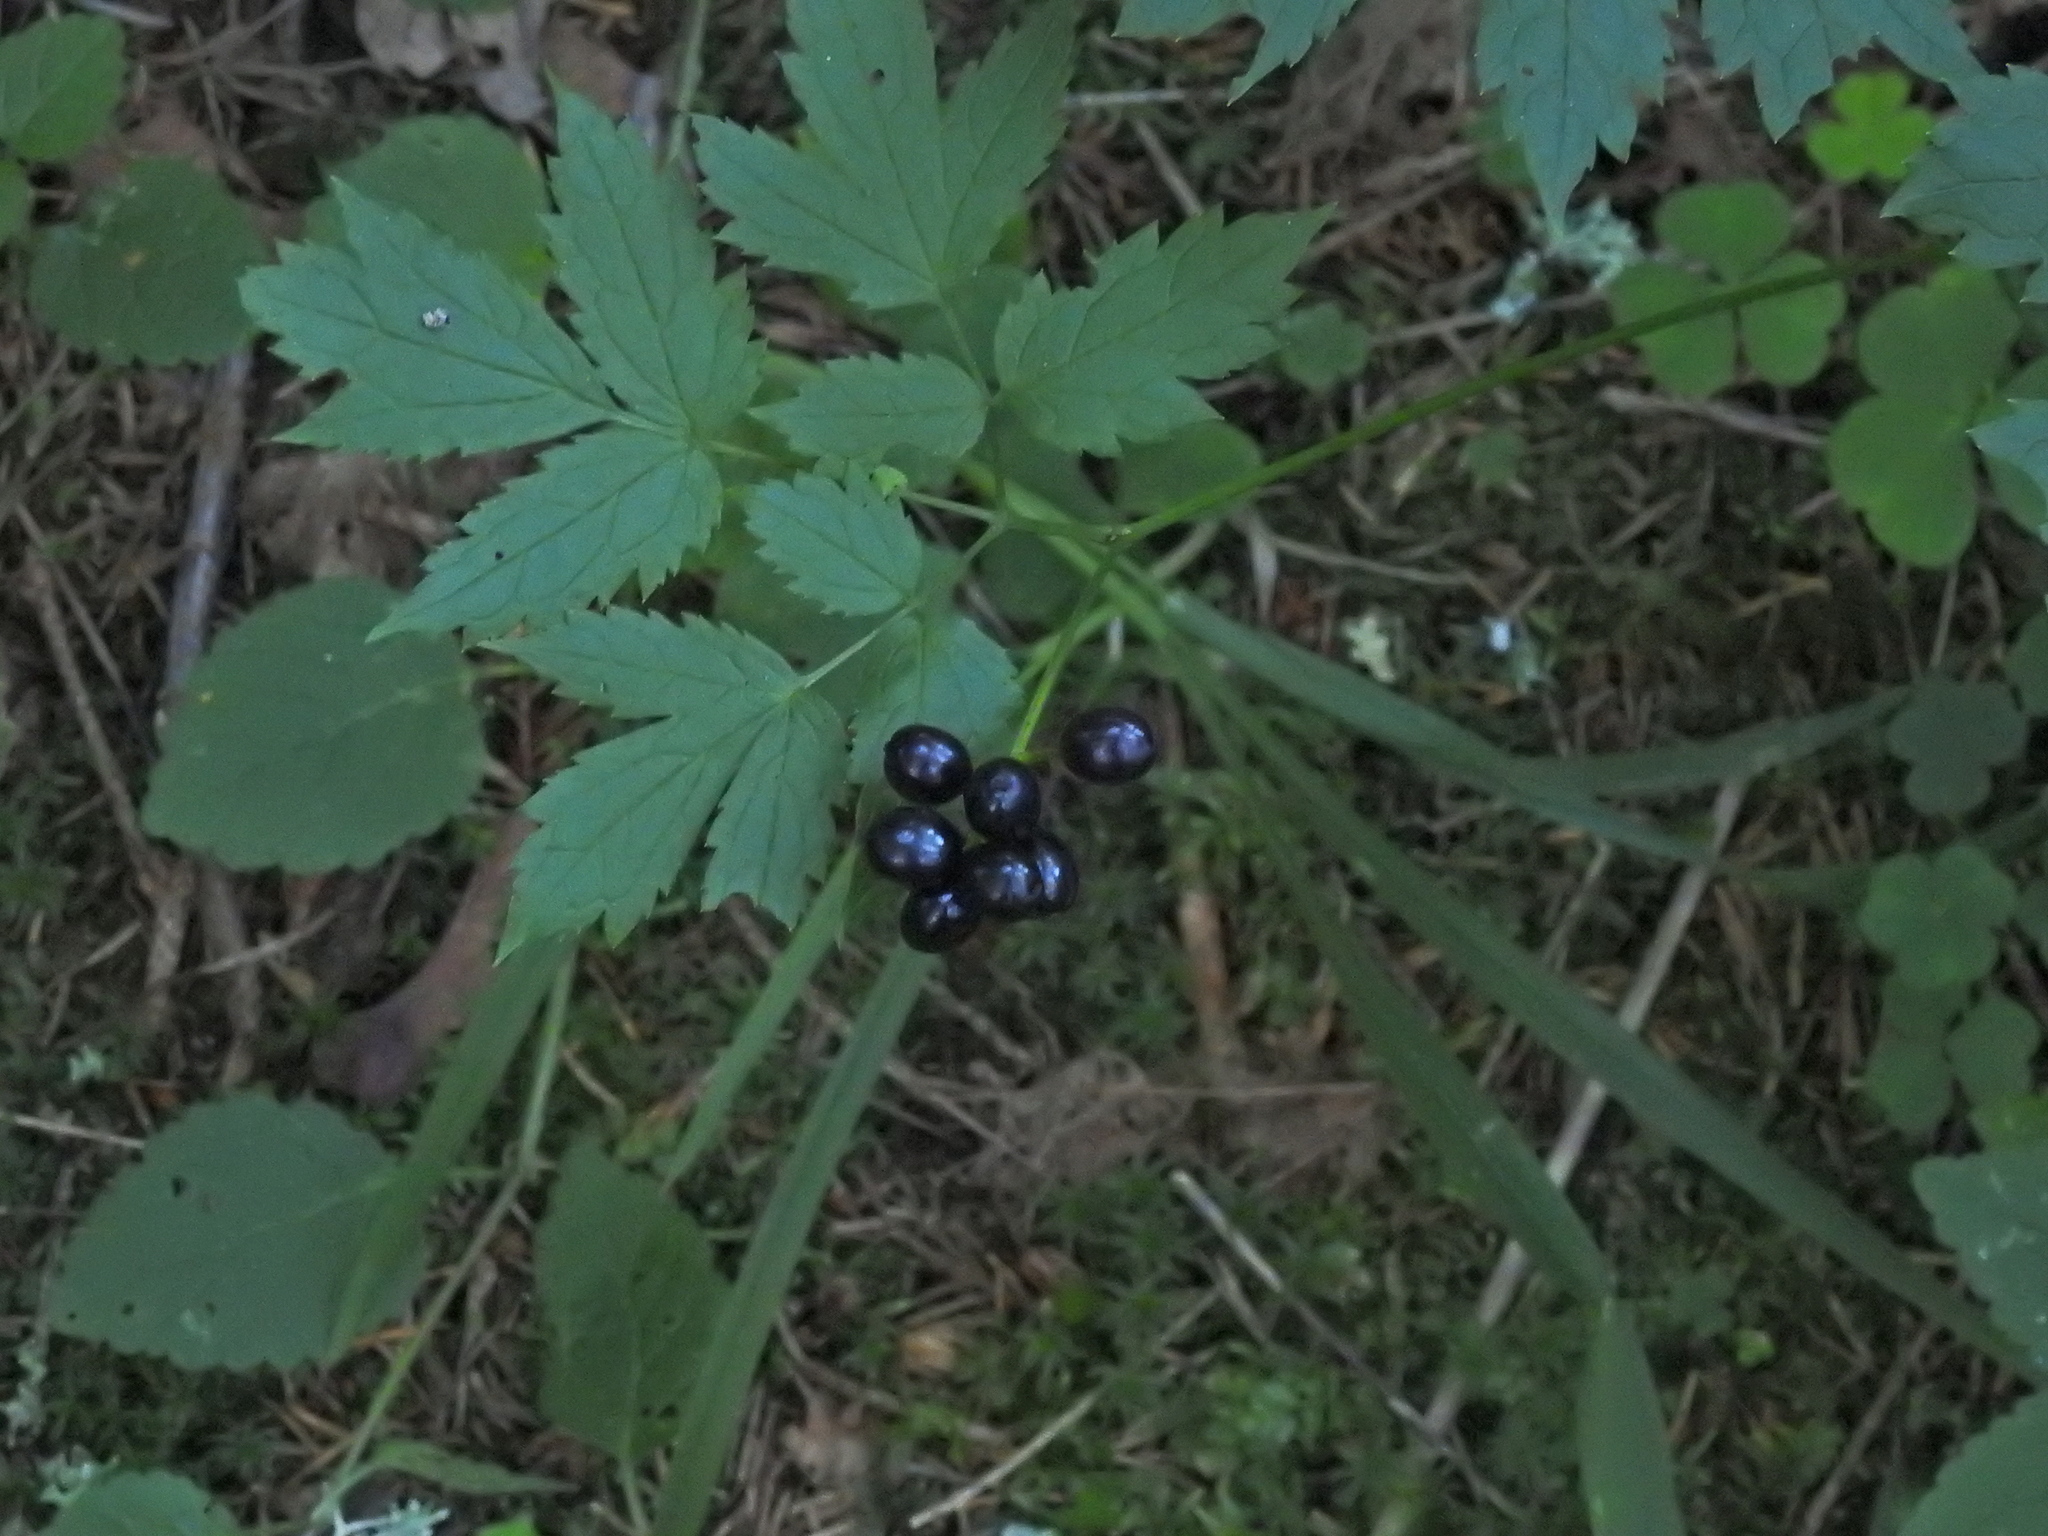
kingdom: Plantae
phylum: Tracheophyta
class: Magnoliopsida
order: Ranunculales
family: Ranunculaceae
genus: Actaea
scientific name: Actaea spicata
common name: Baneberry
